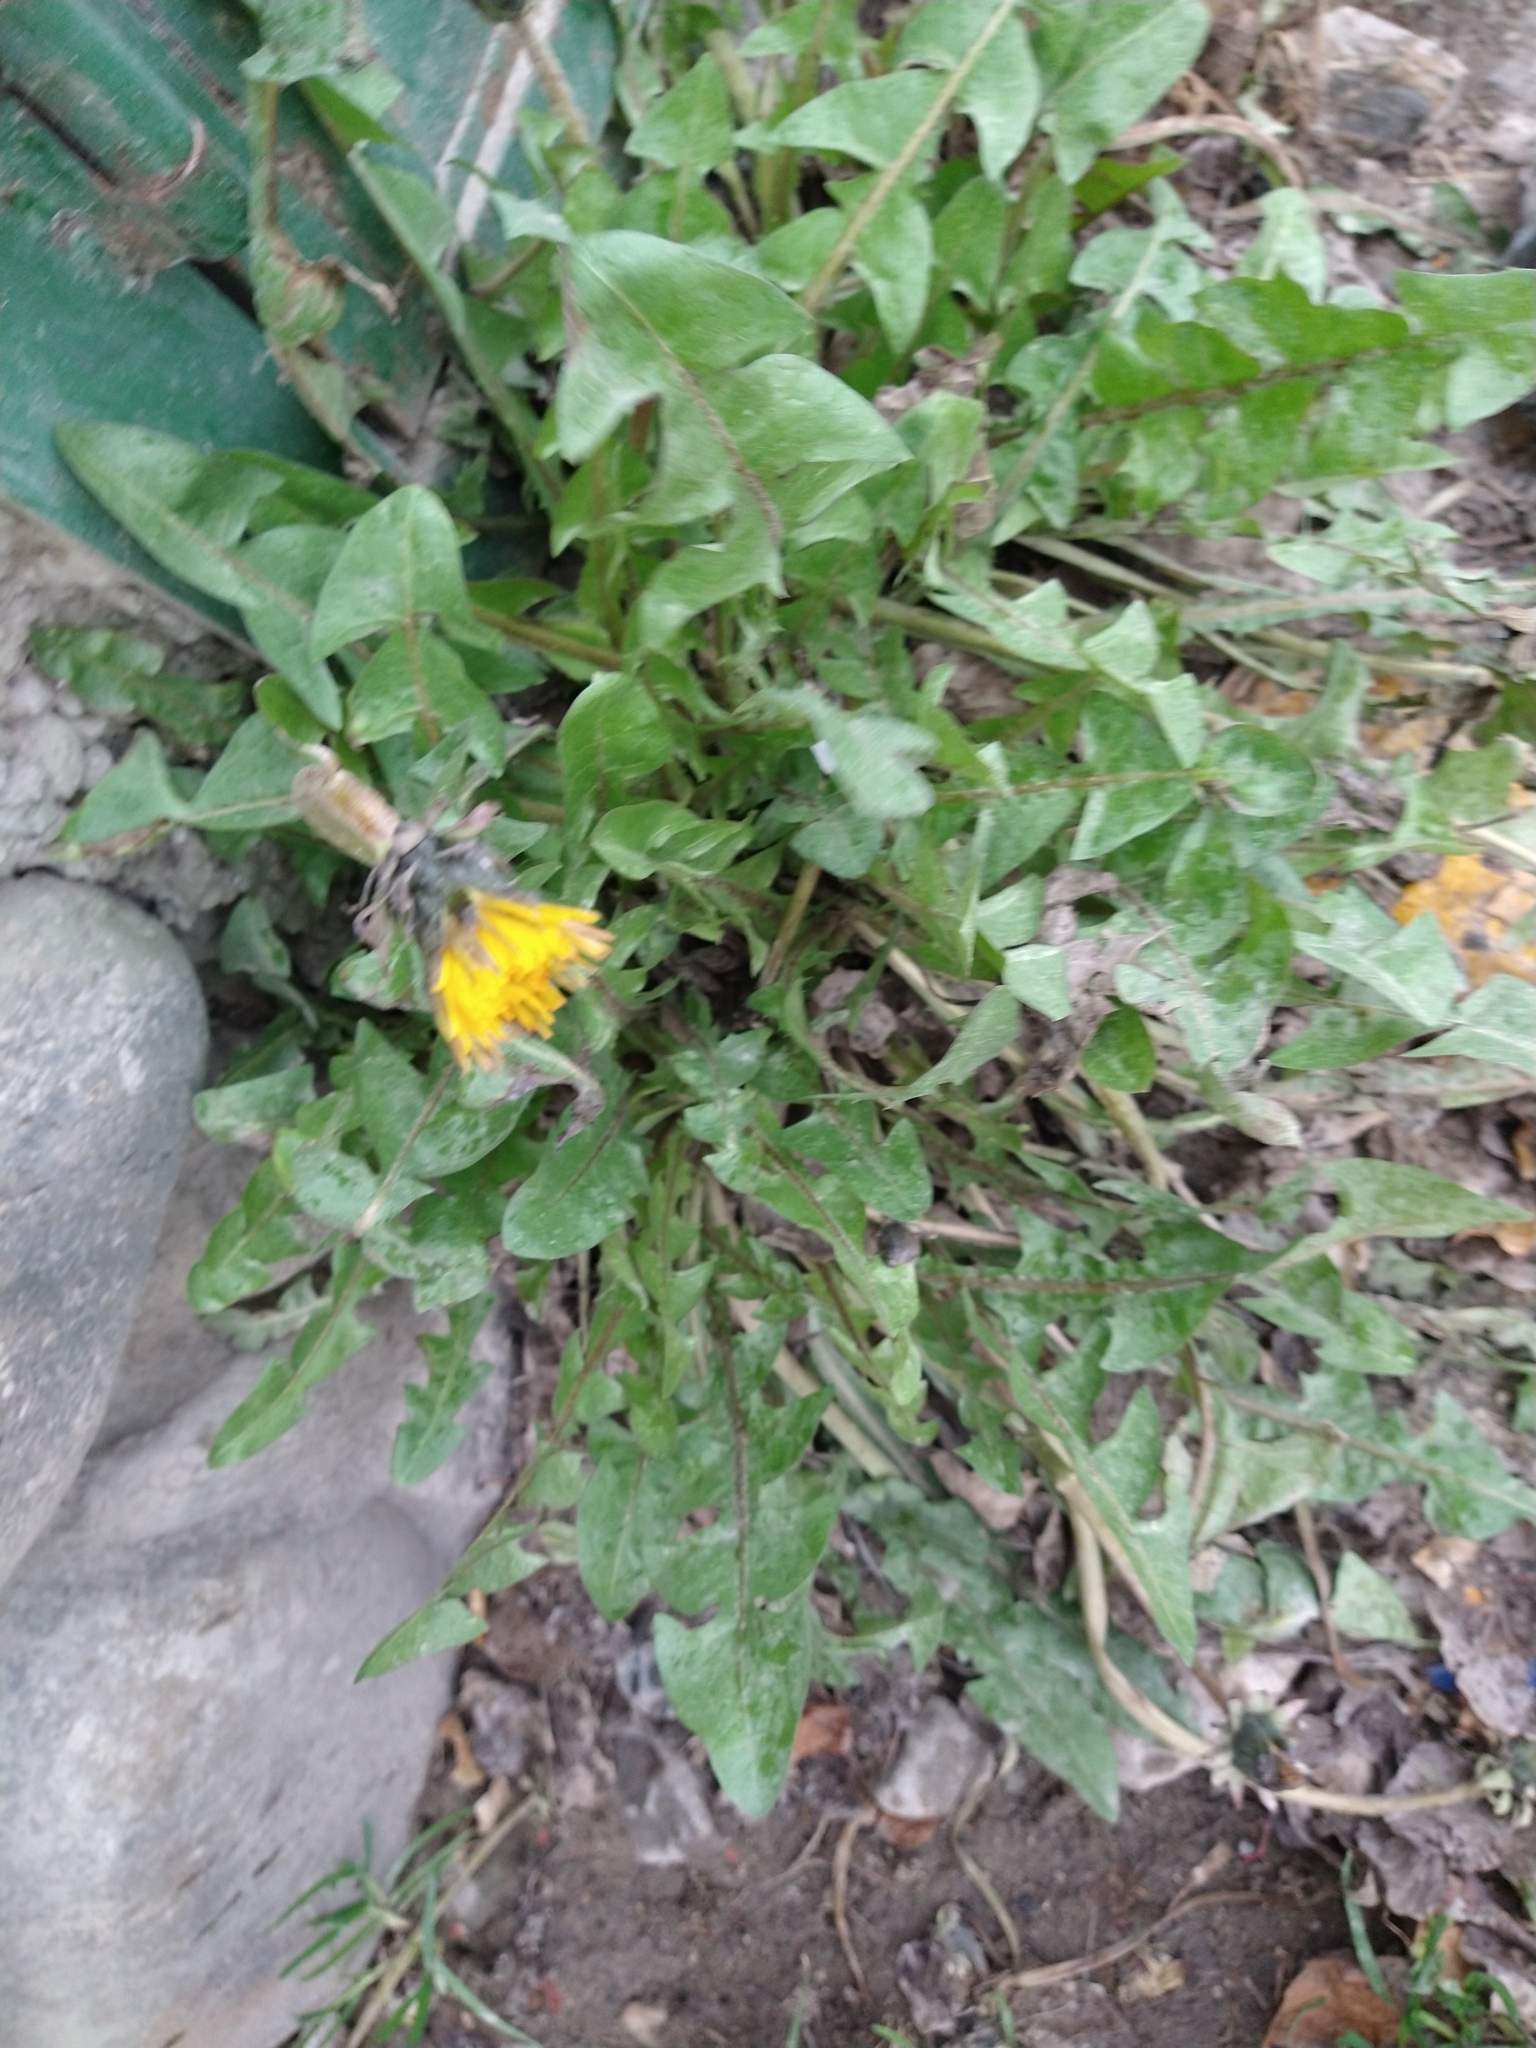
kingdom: Plantae
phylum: Tracheophyta
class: Magnoliopsida
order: Asterales
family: Asteraceae
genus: Taraxacum
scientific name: Taraxacum officinale
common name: Common dandelion
